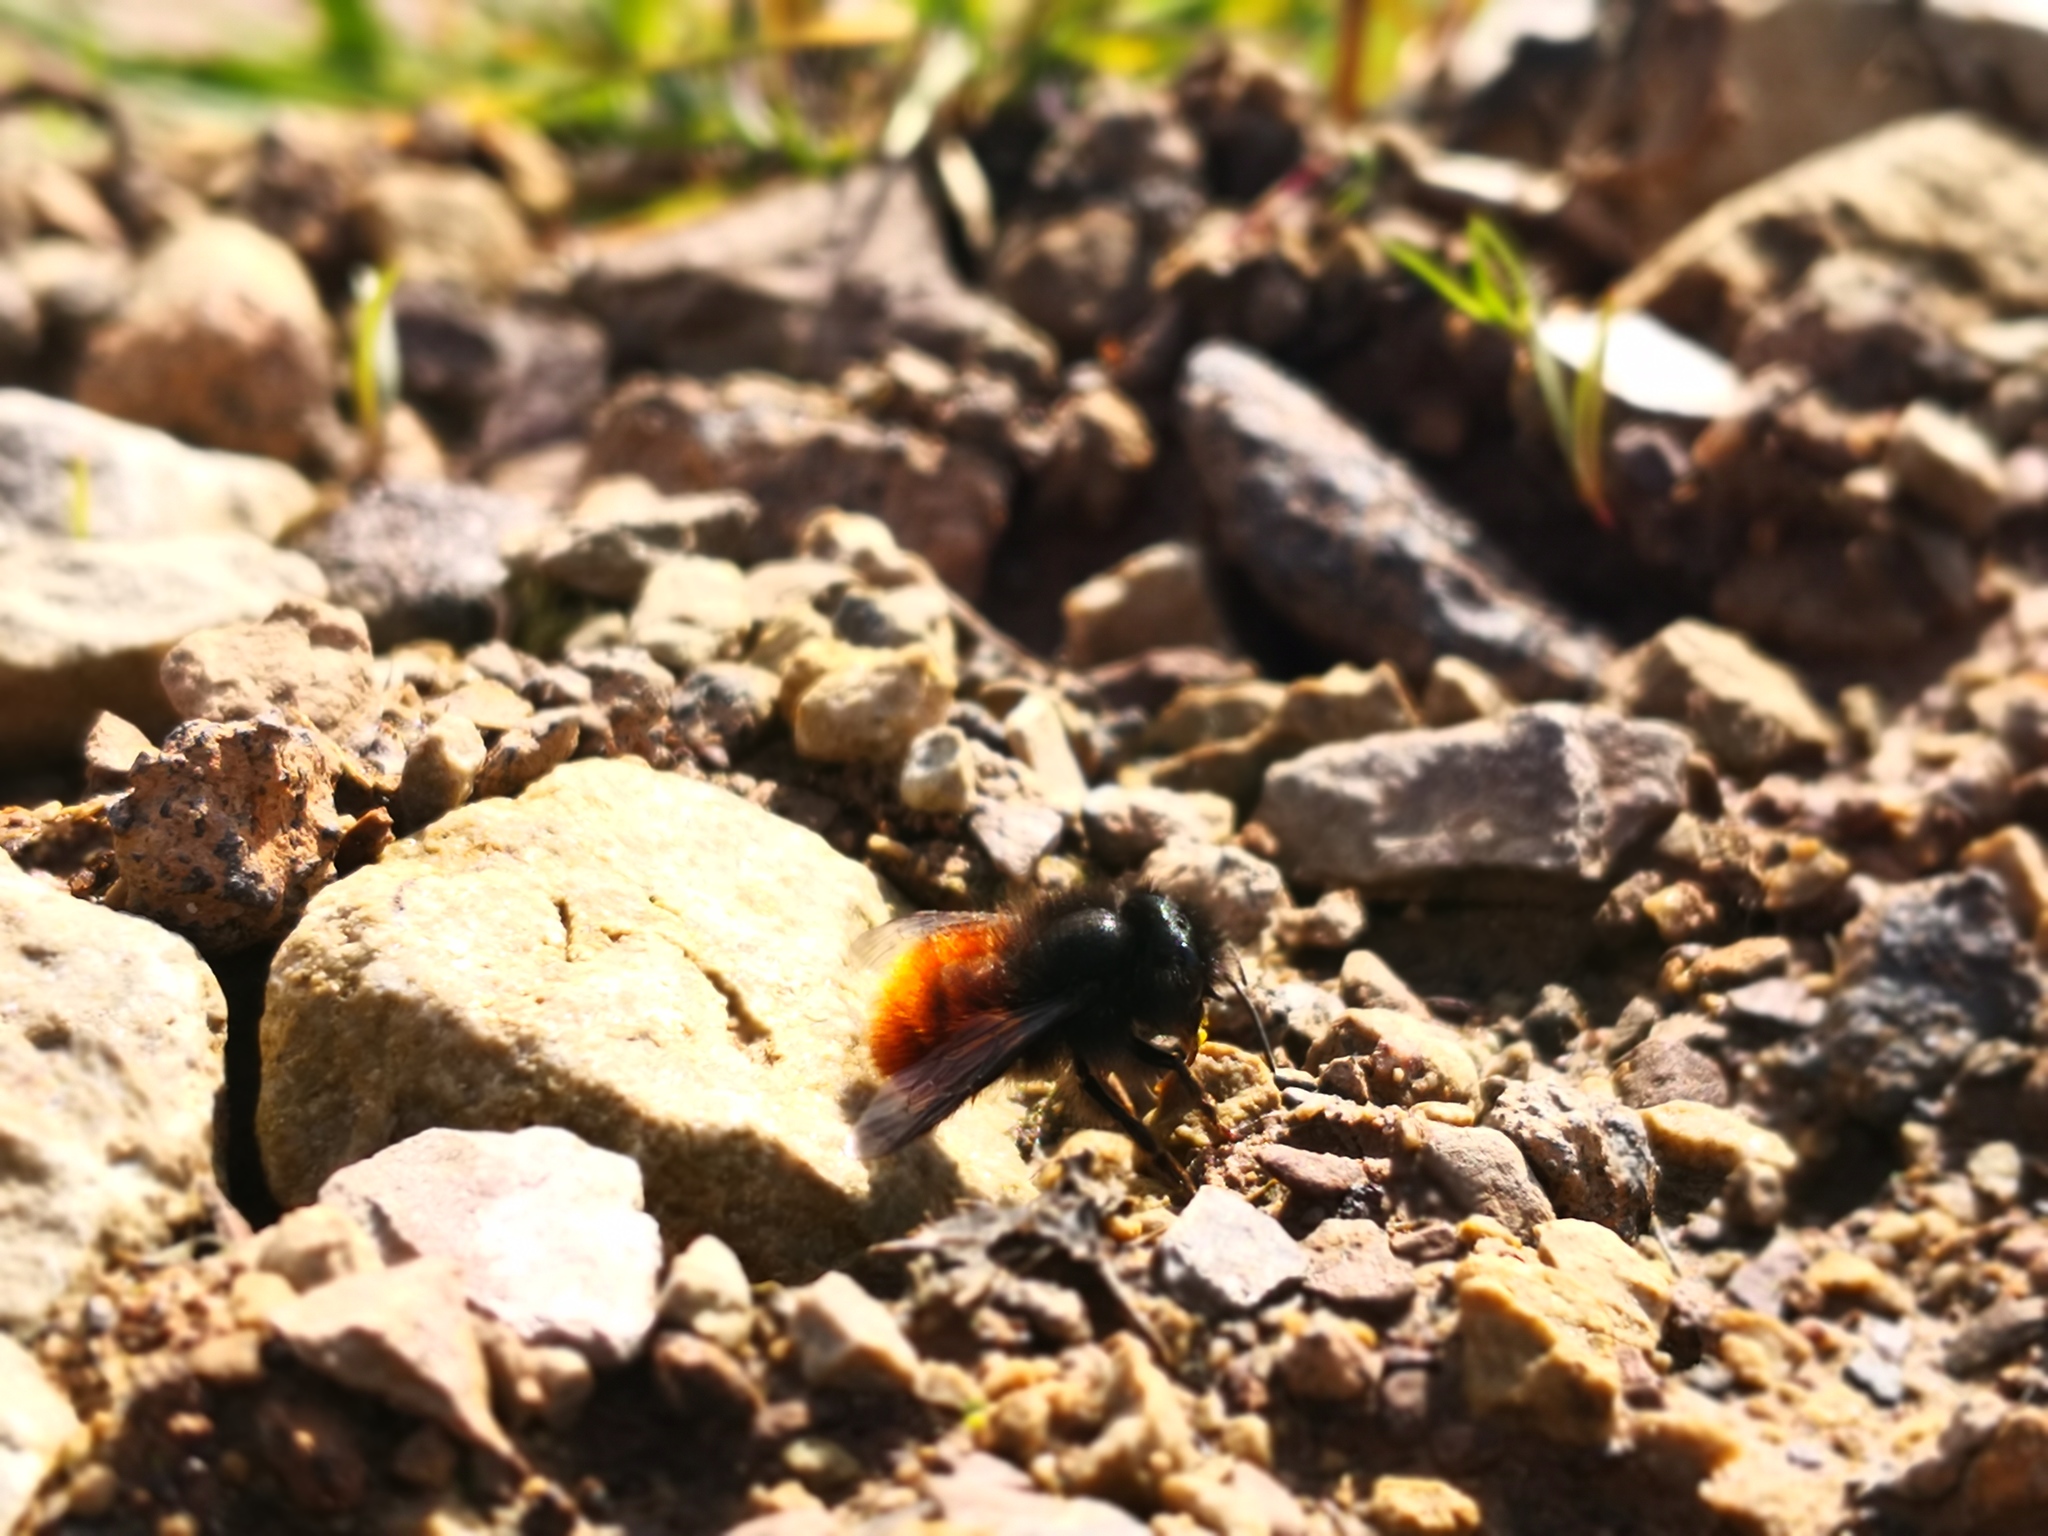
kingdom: Animalia
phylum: Arthropoda
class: Insecta
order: Hymenoptera
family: Megachilidae
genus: Osmia
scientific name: Osmia cornuta
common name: Mason bee
